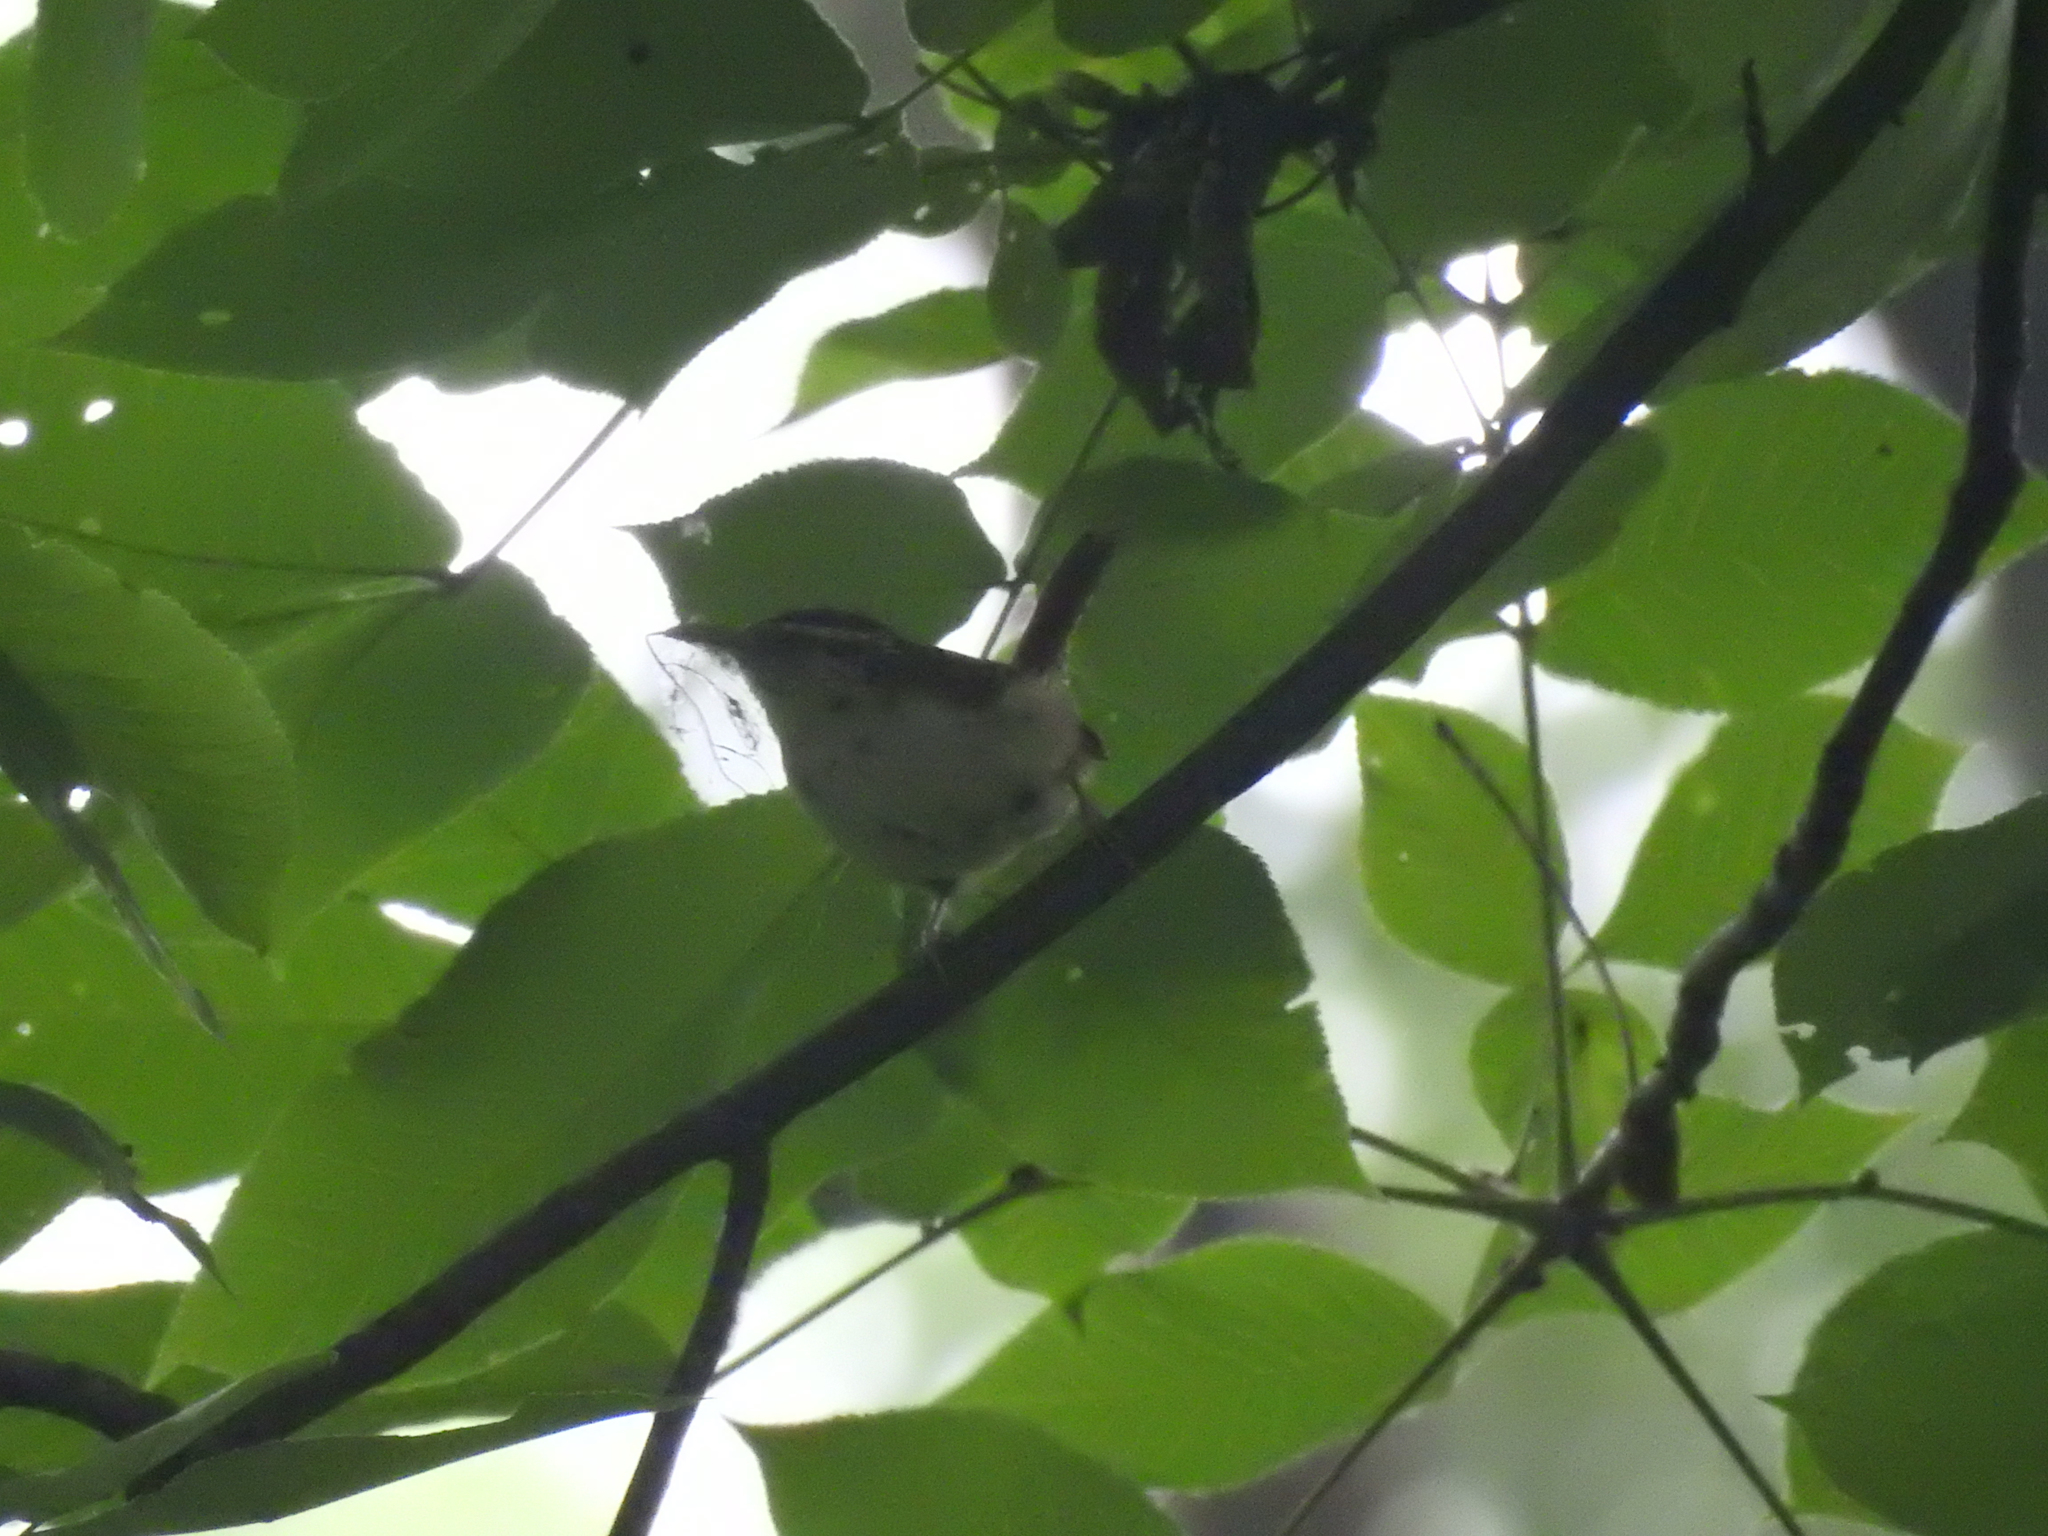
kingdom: Animalia
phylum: Chordata
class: Aves
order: Passeriformes
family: Troglodytidae
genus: Thryothorus
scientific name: Thryothorus ludovicianus
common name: Carolina wren
